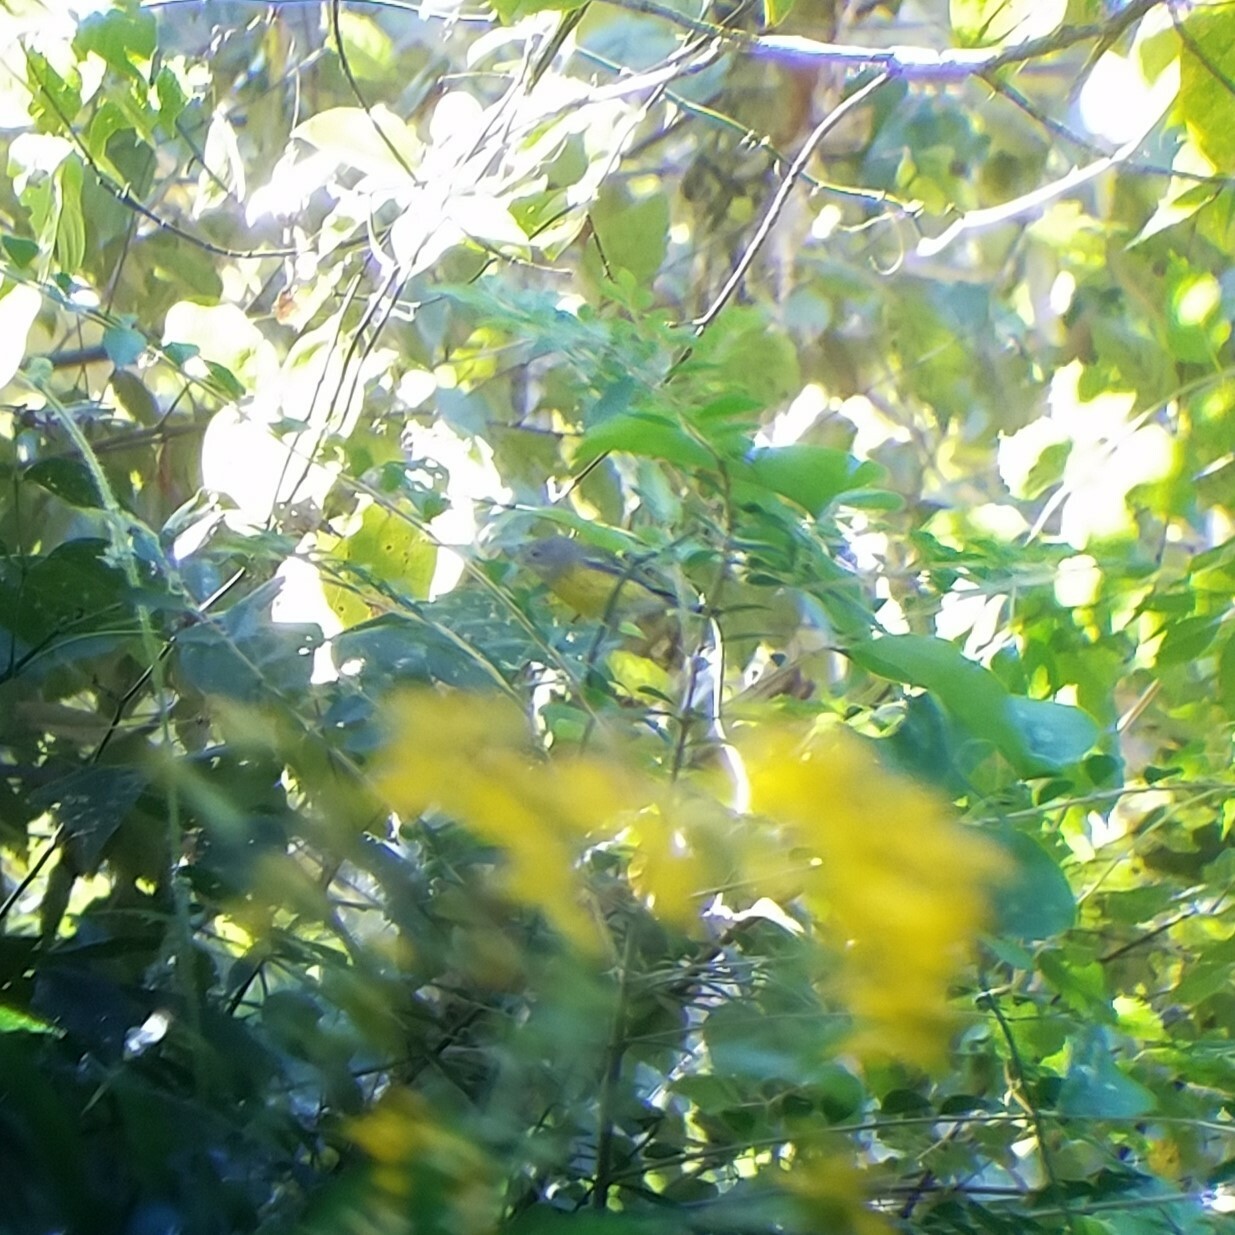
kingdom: Animalia
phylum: Chordata
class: Aves
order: Passeriformes
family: Parulidae
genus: Setophaga
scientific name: Setophaga magnolia
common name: Magnolia warbler
